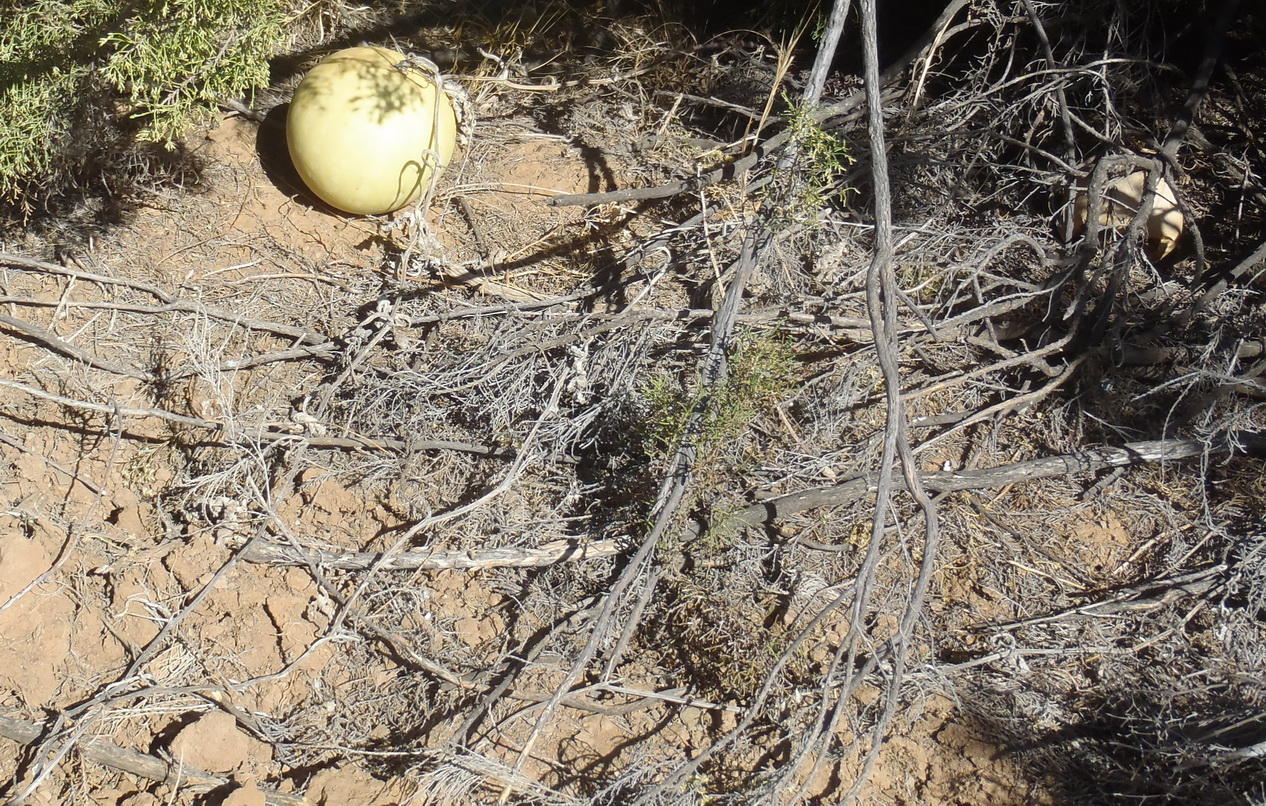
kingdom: Plantae
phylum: Tracheophyta
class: Magnoliopsida
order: Cucurbitales
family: Cucurbitaceae
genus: Citrullus
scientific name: Citrullus amarus
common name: Fodder-melon
